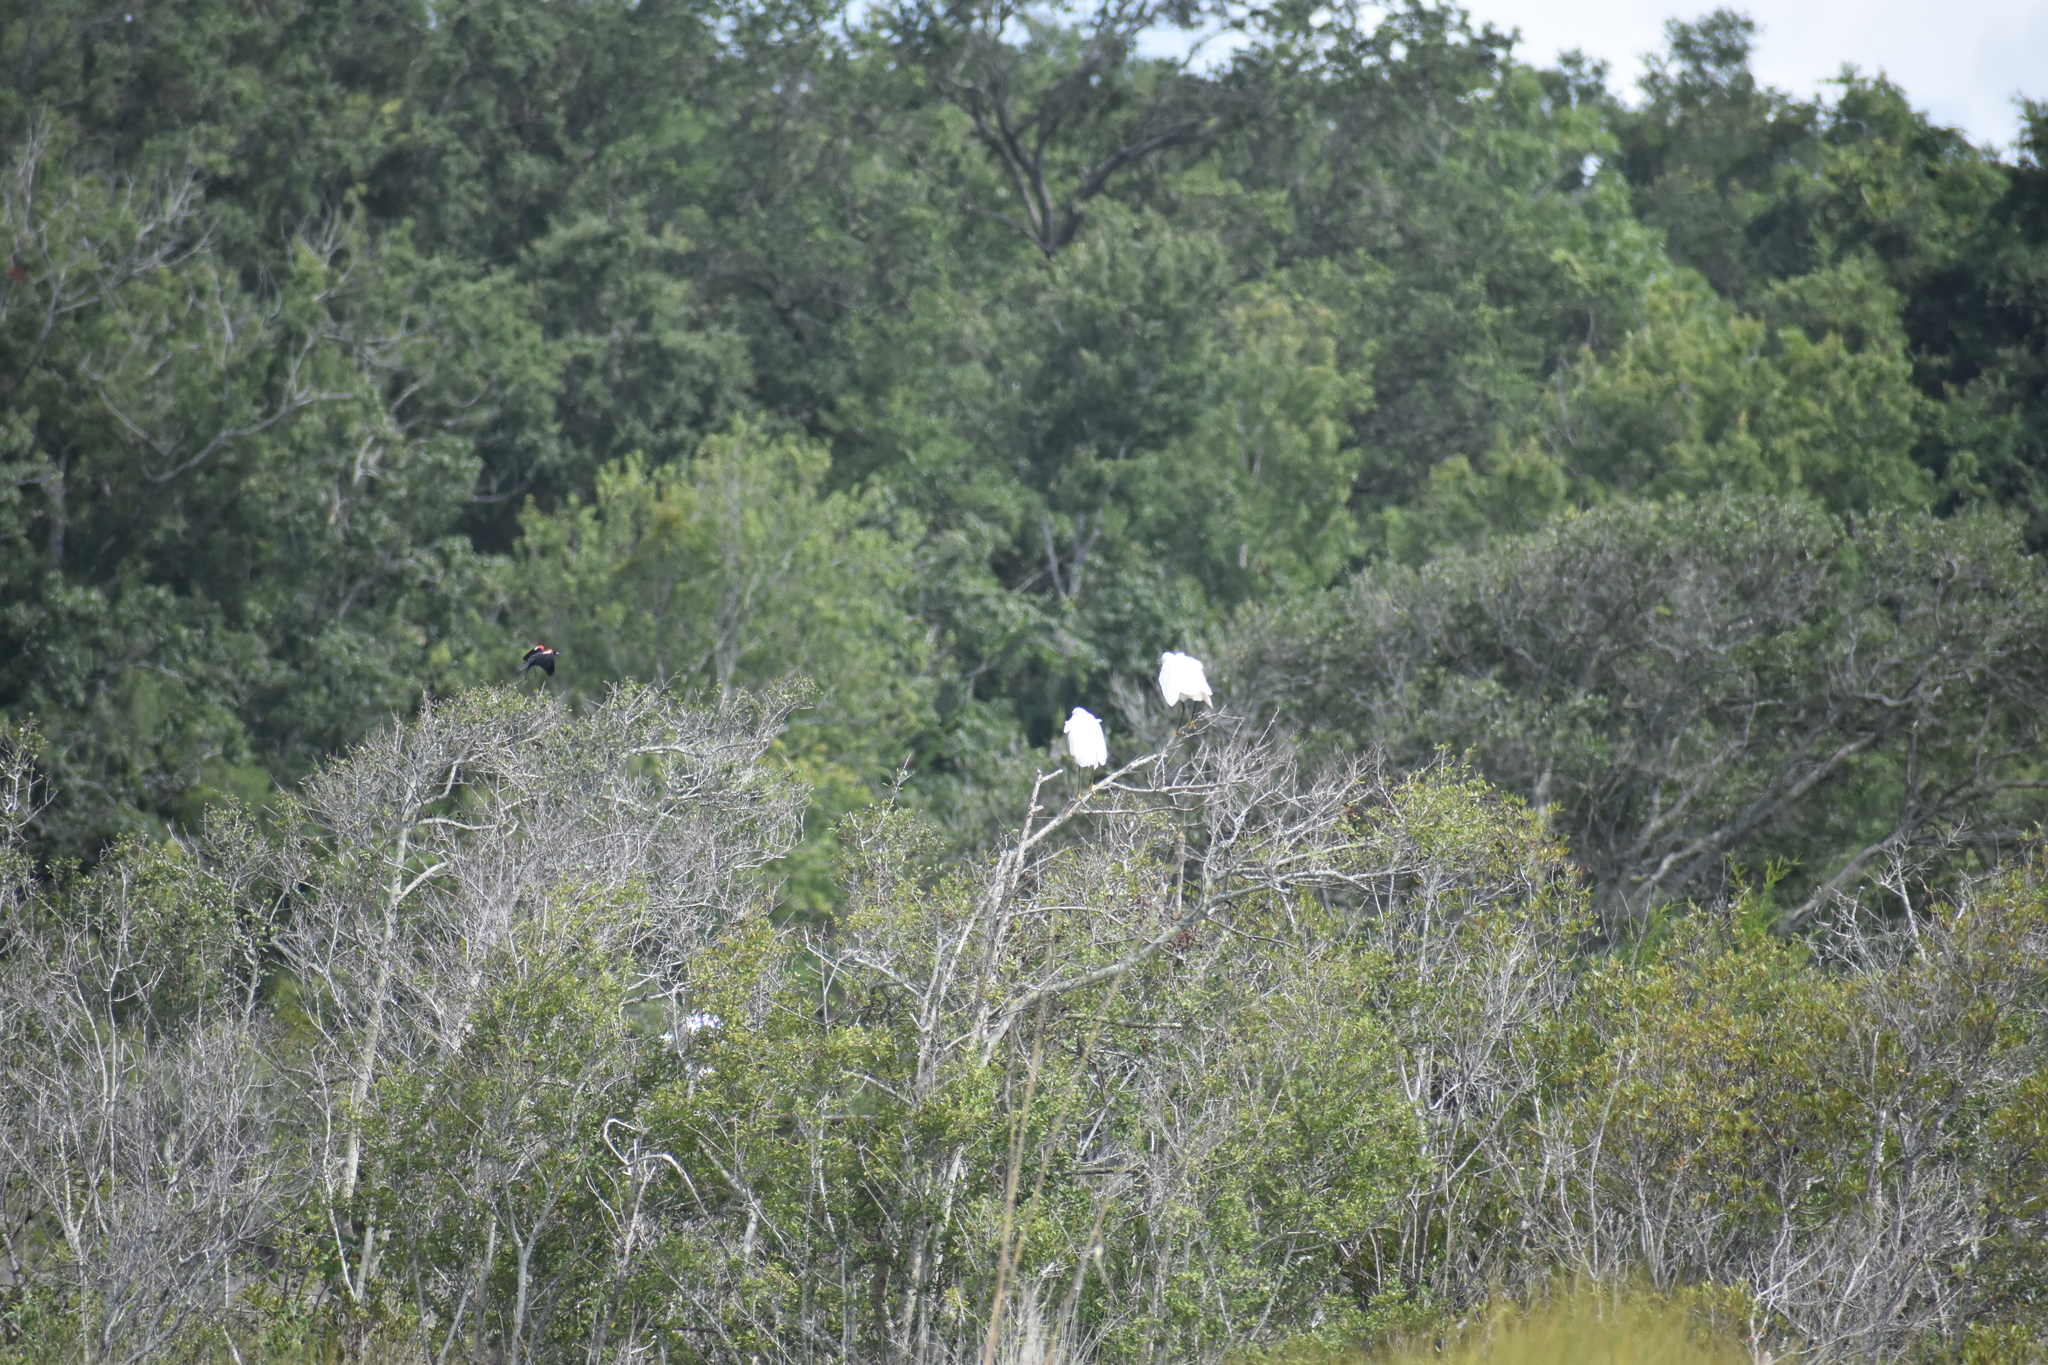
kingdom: Animalia
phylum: Chordata
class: Aves
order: Pelecaniformes
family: Ardeidae
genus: Egretta
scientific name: Egretta thula
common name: Snowy egret
